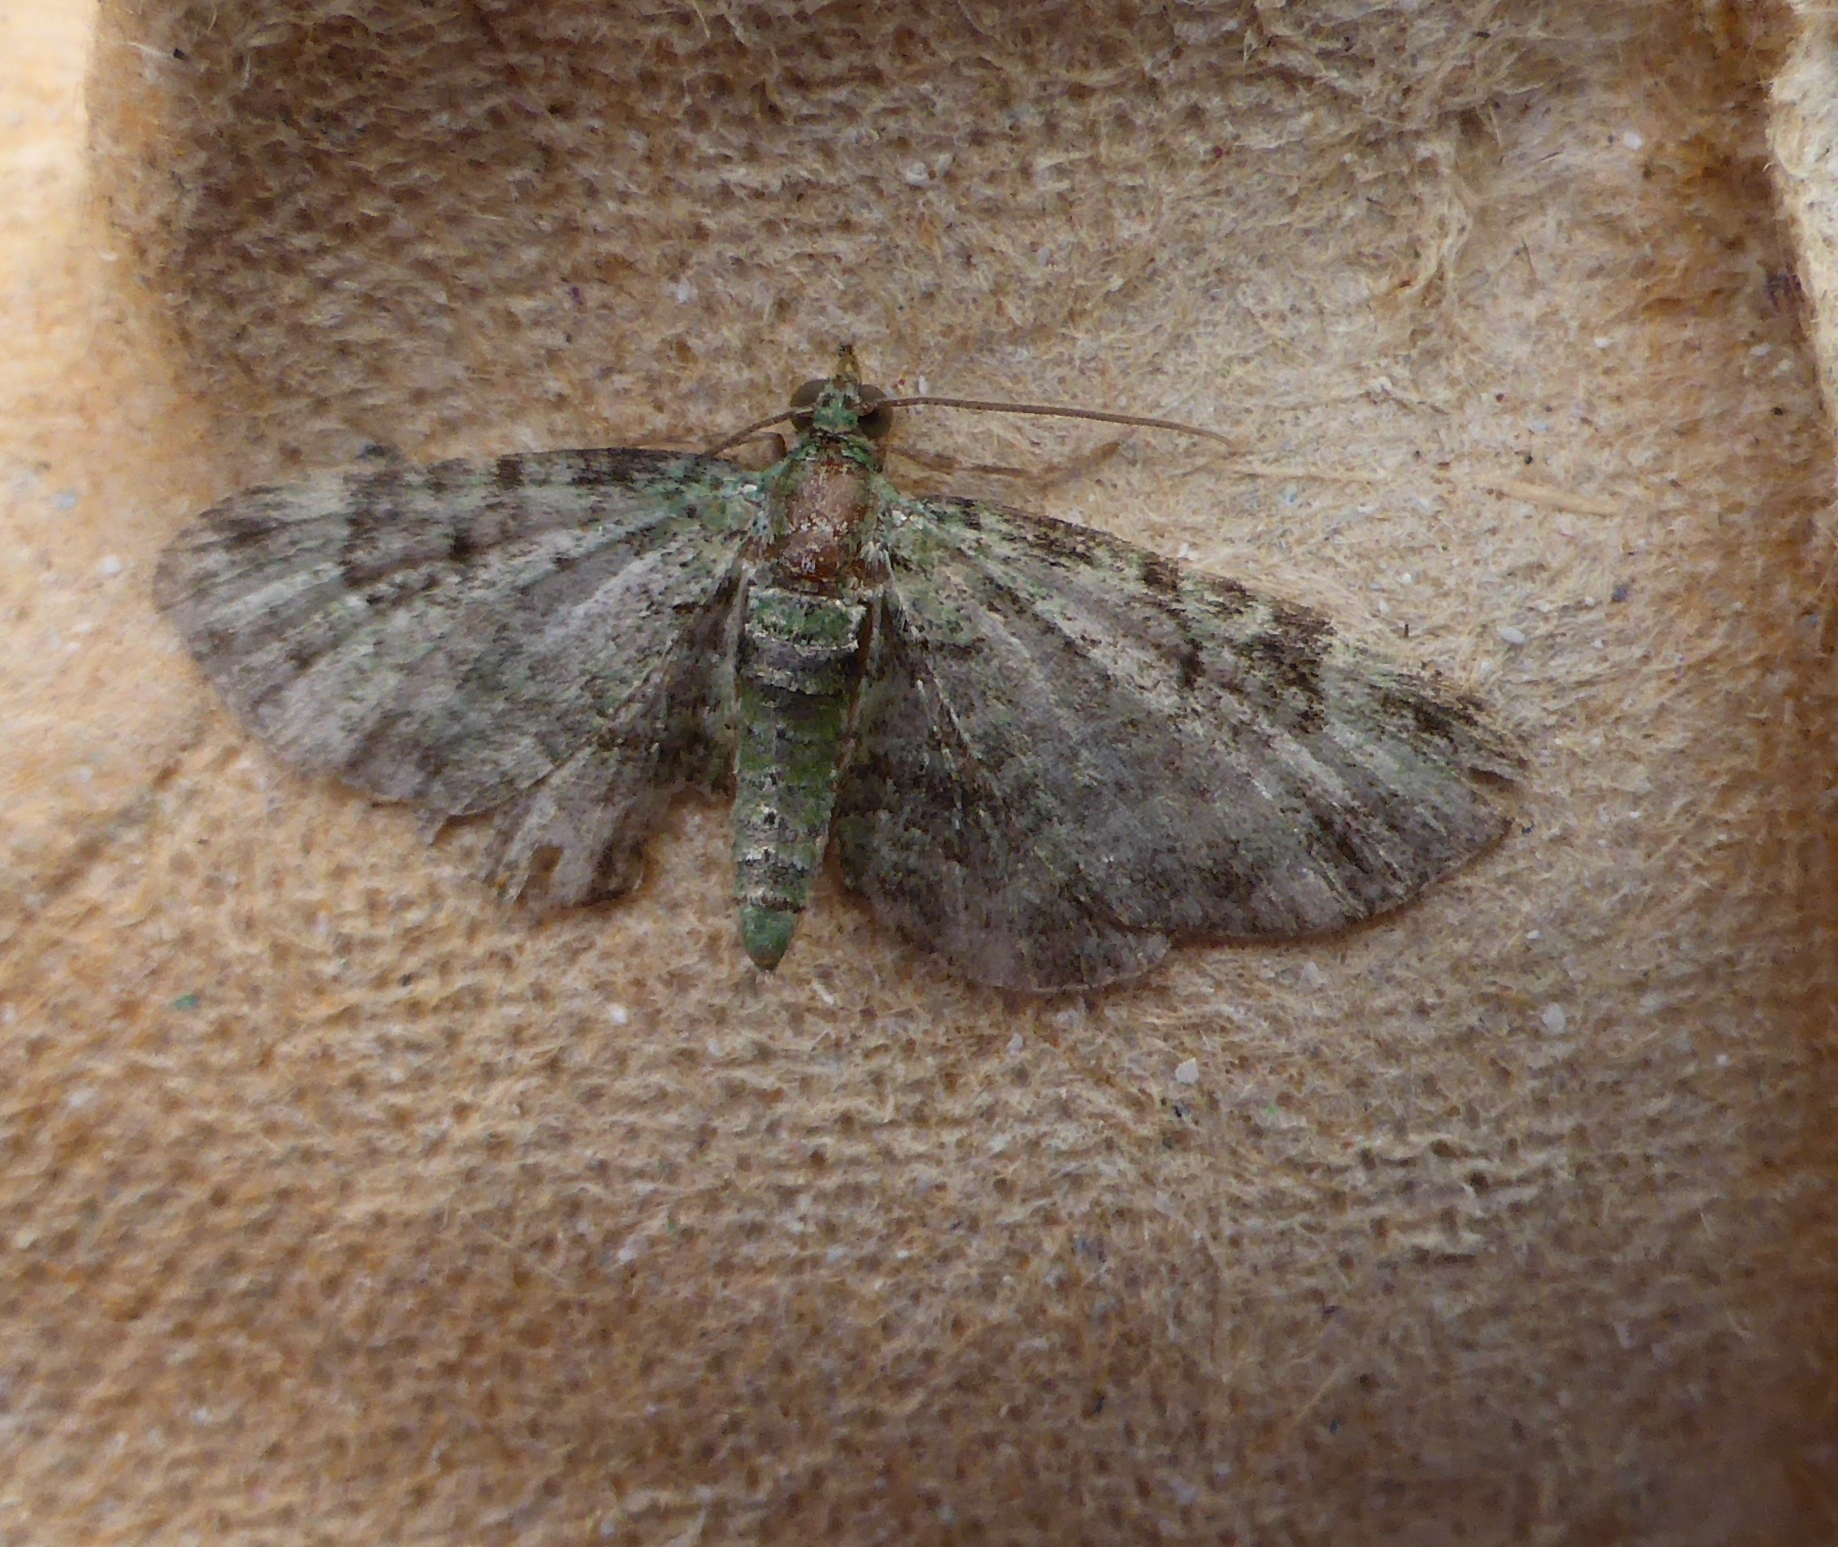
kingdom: Animalia
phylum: Arthropoda
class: Insecta
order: Lepidoptera
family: Geometridae
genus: Pasiphila
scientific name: Pasiphila rectangulata
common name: Green pug
